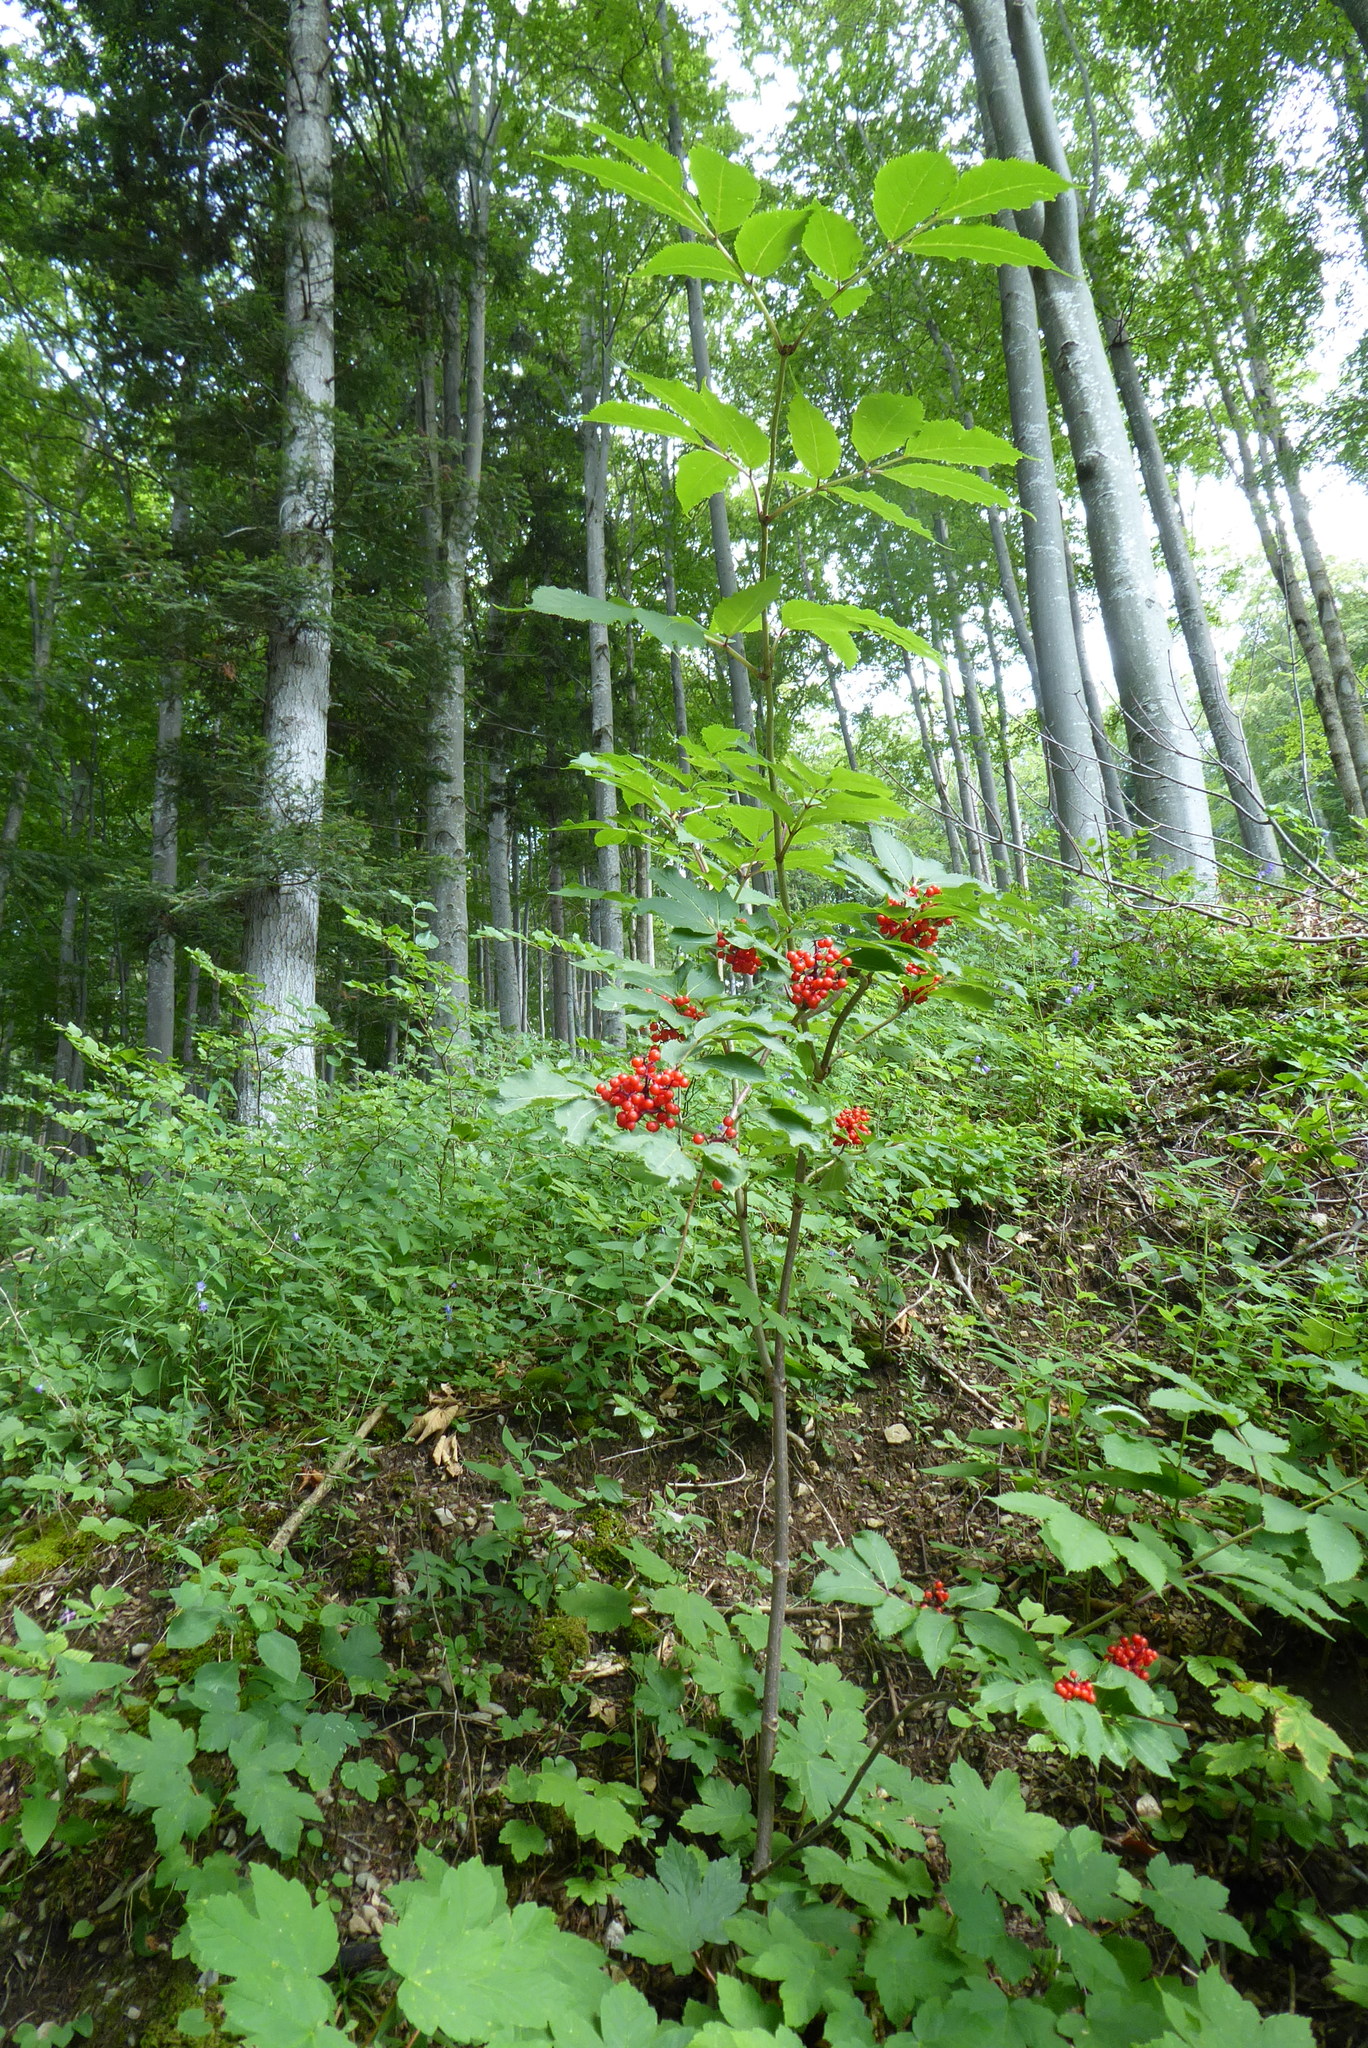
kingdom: Plantae
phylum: Tracheophyta
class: Magnoliopsida
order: Dipsacales
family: Viburnaceae
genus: Sambucus
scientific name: Sambucus racemosa
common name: Red-berried elder
